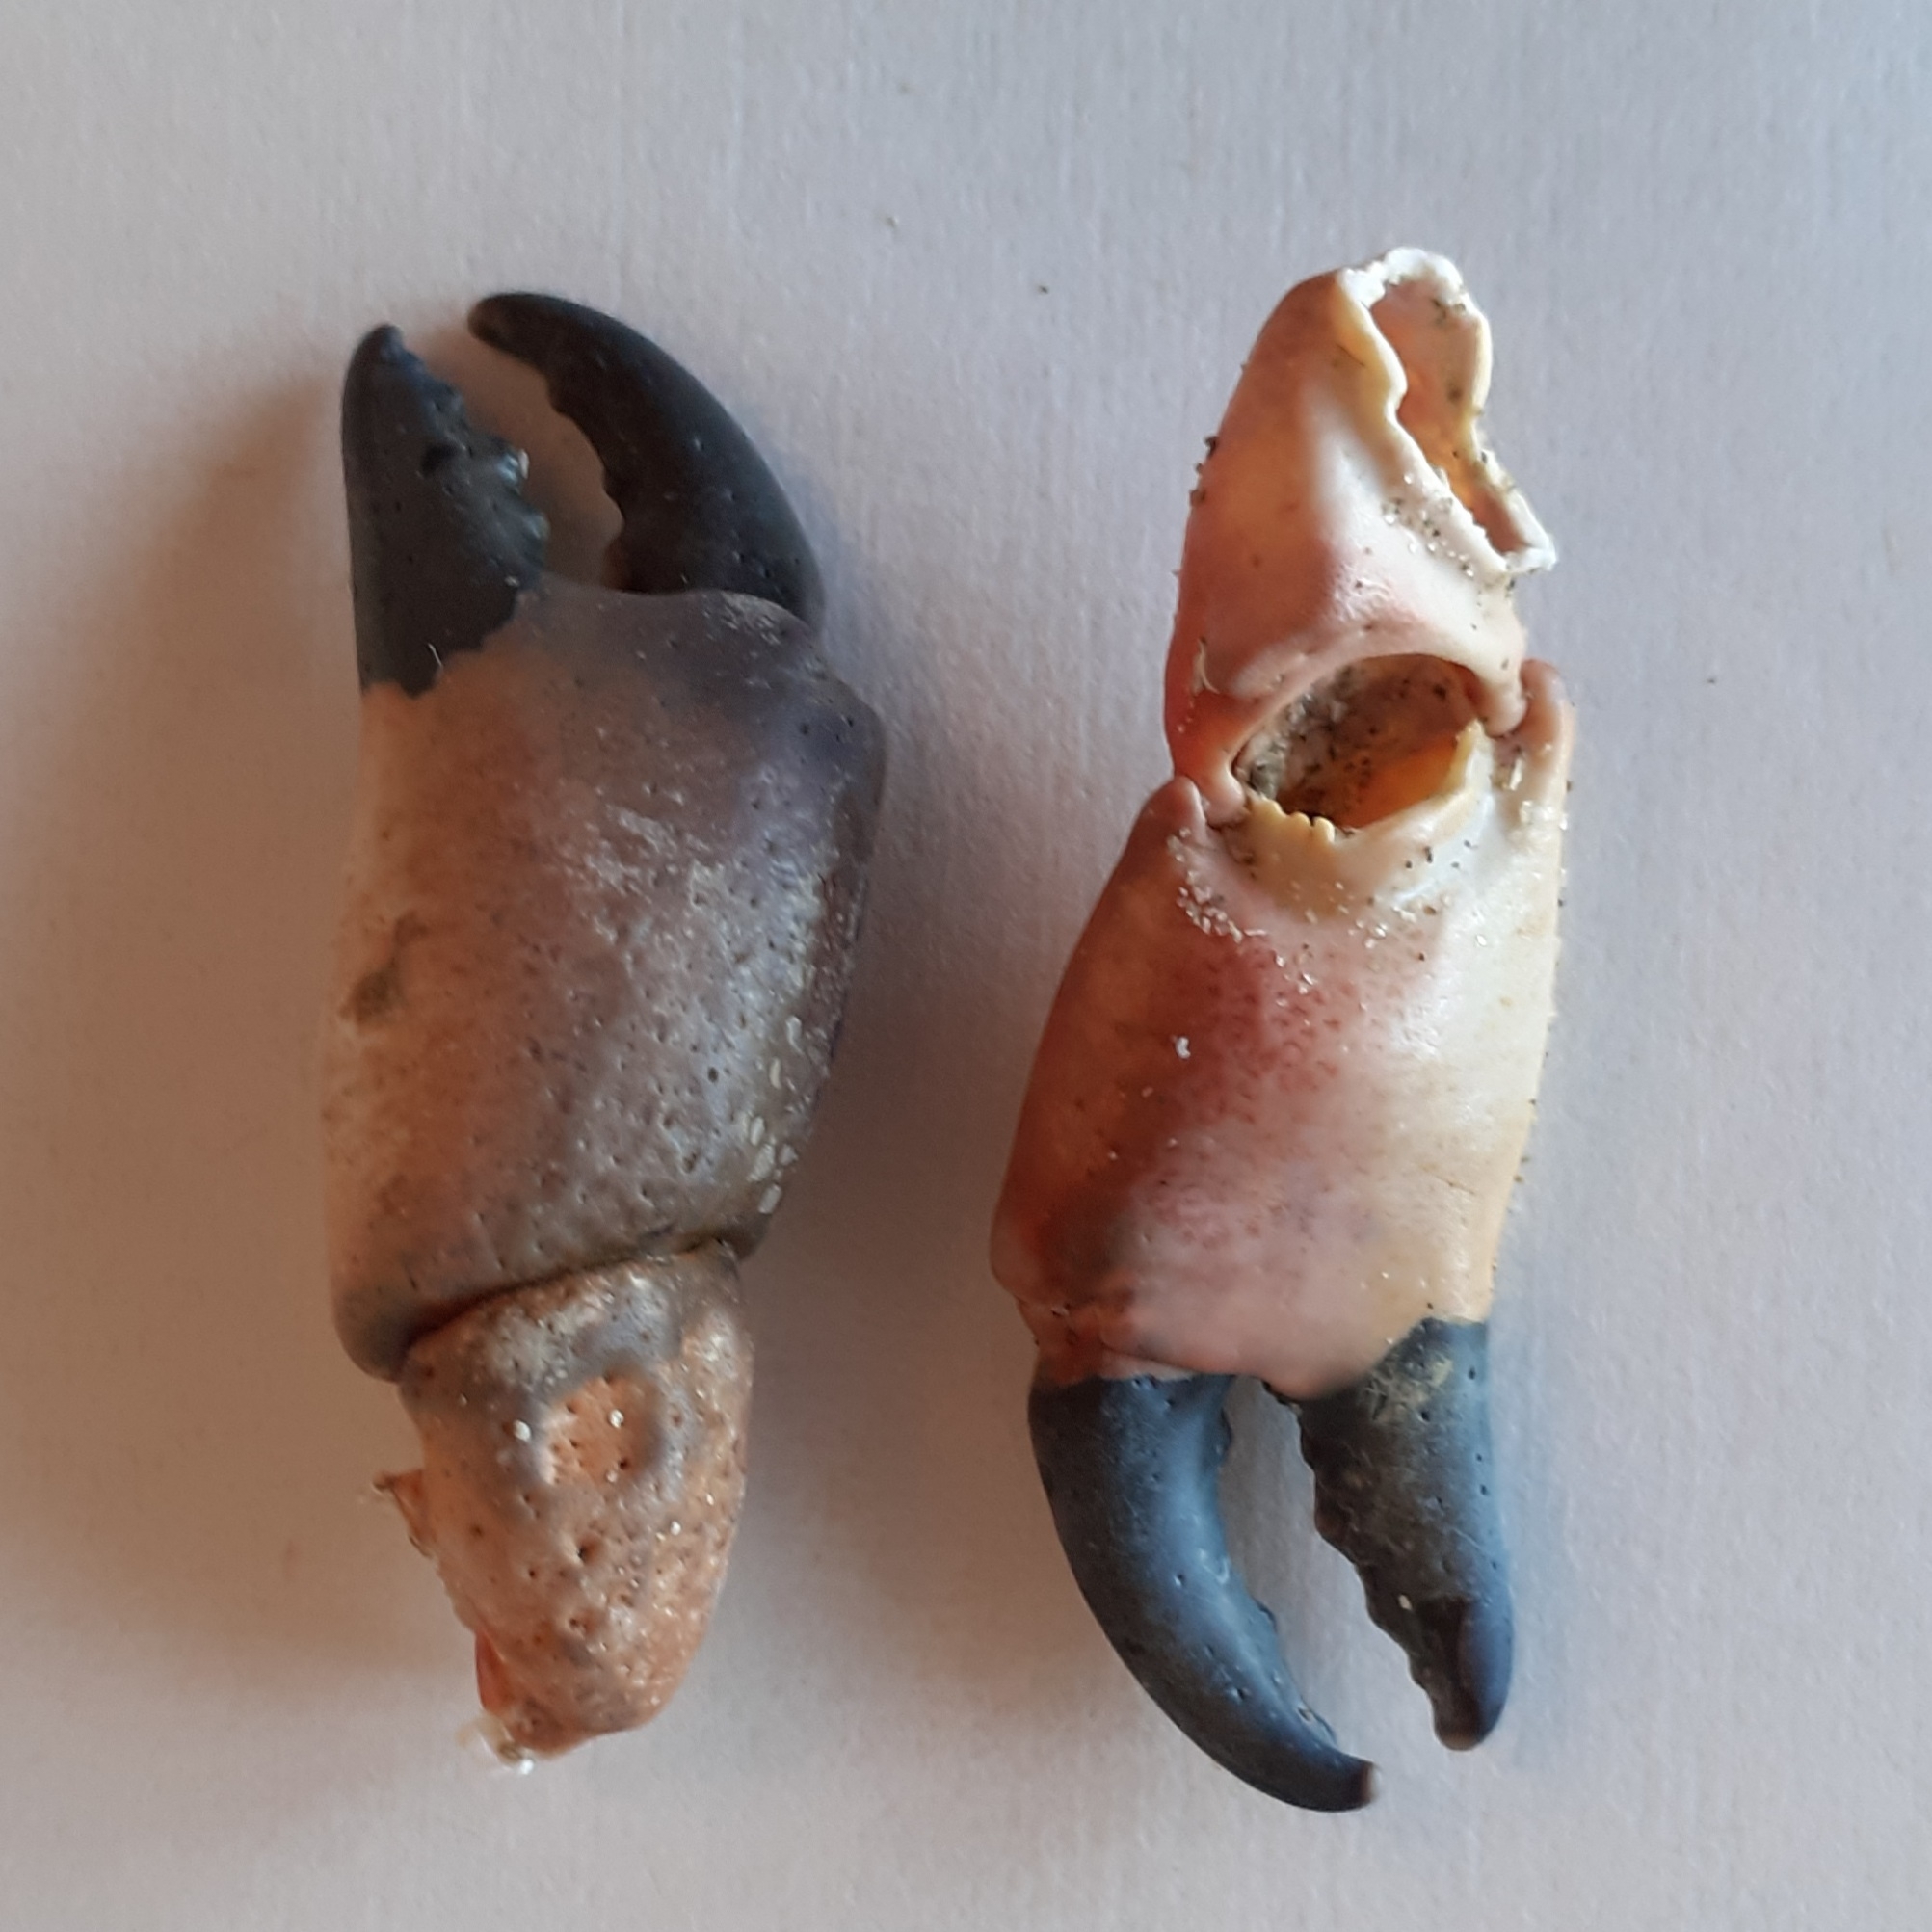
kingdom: Animalia
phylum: Arthropoda
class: Malacostraca
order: Decapoda
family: Xanthidae
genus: Xantho
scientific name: Xantho hydrophilus
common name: Montagu's crab
